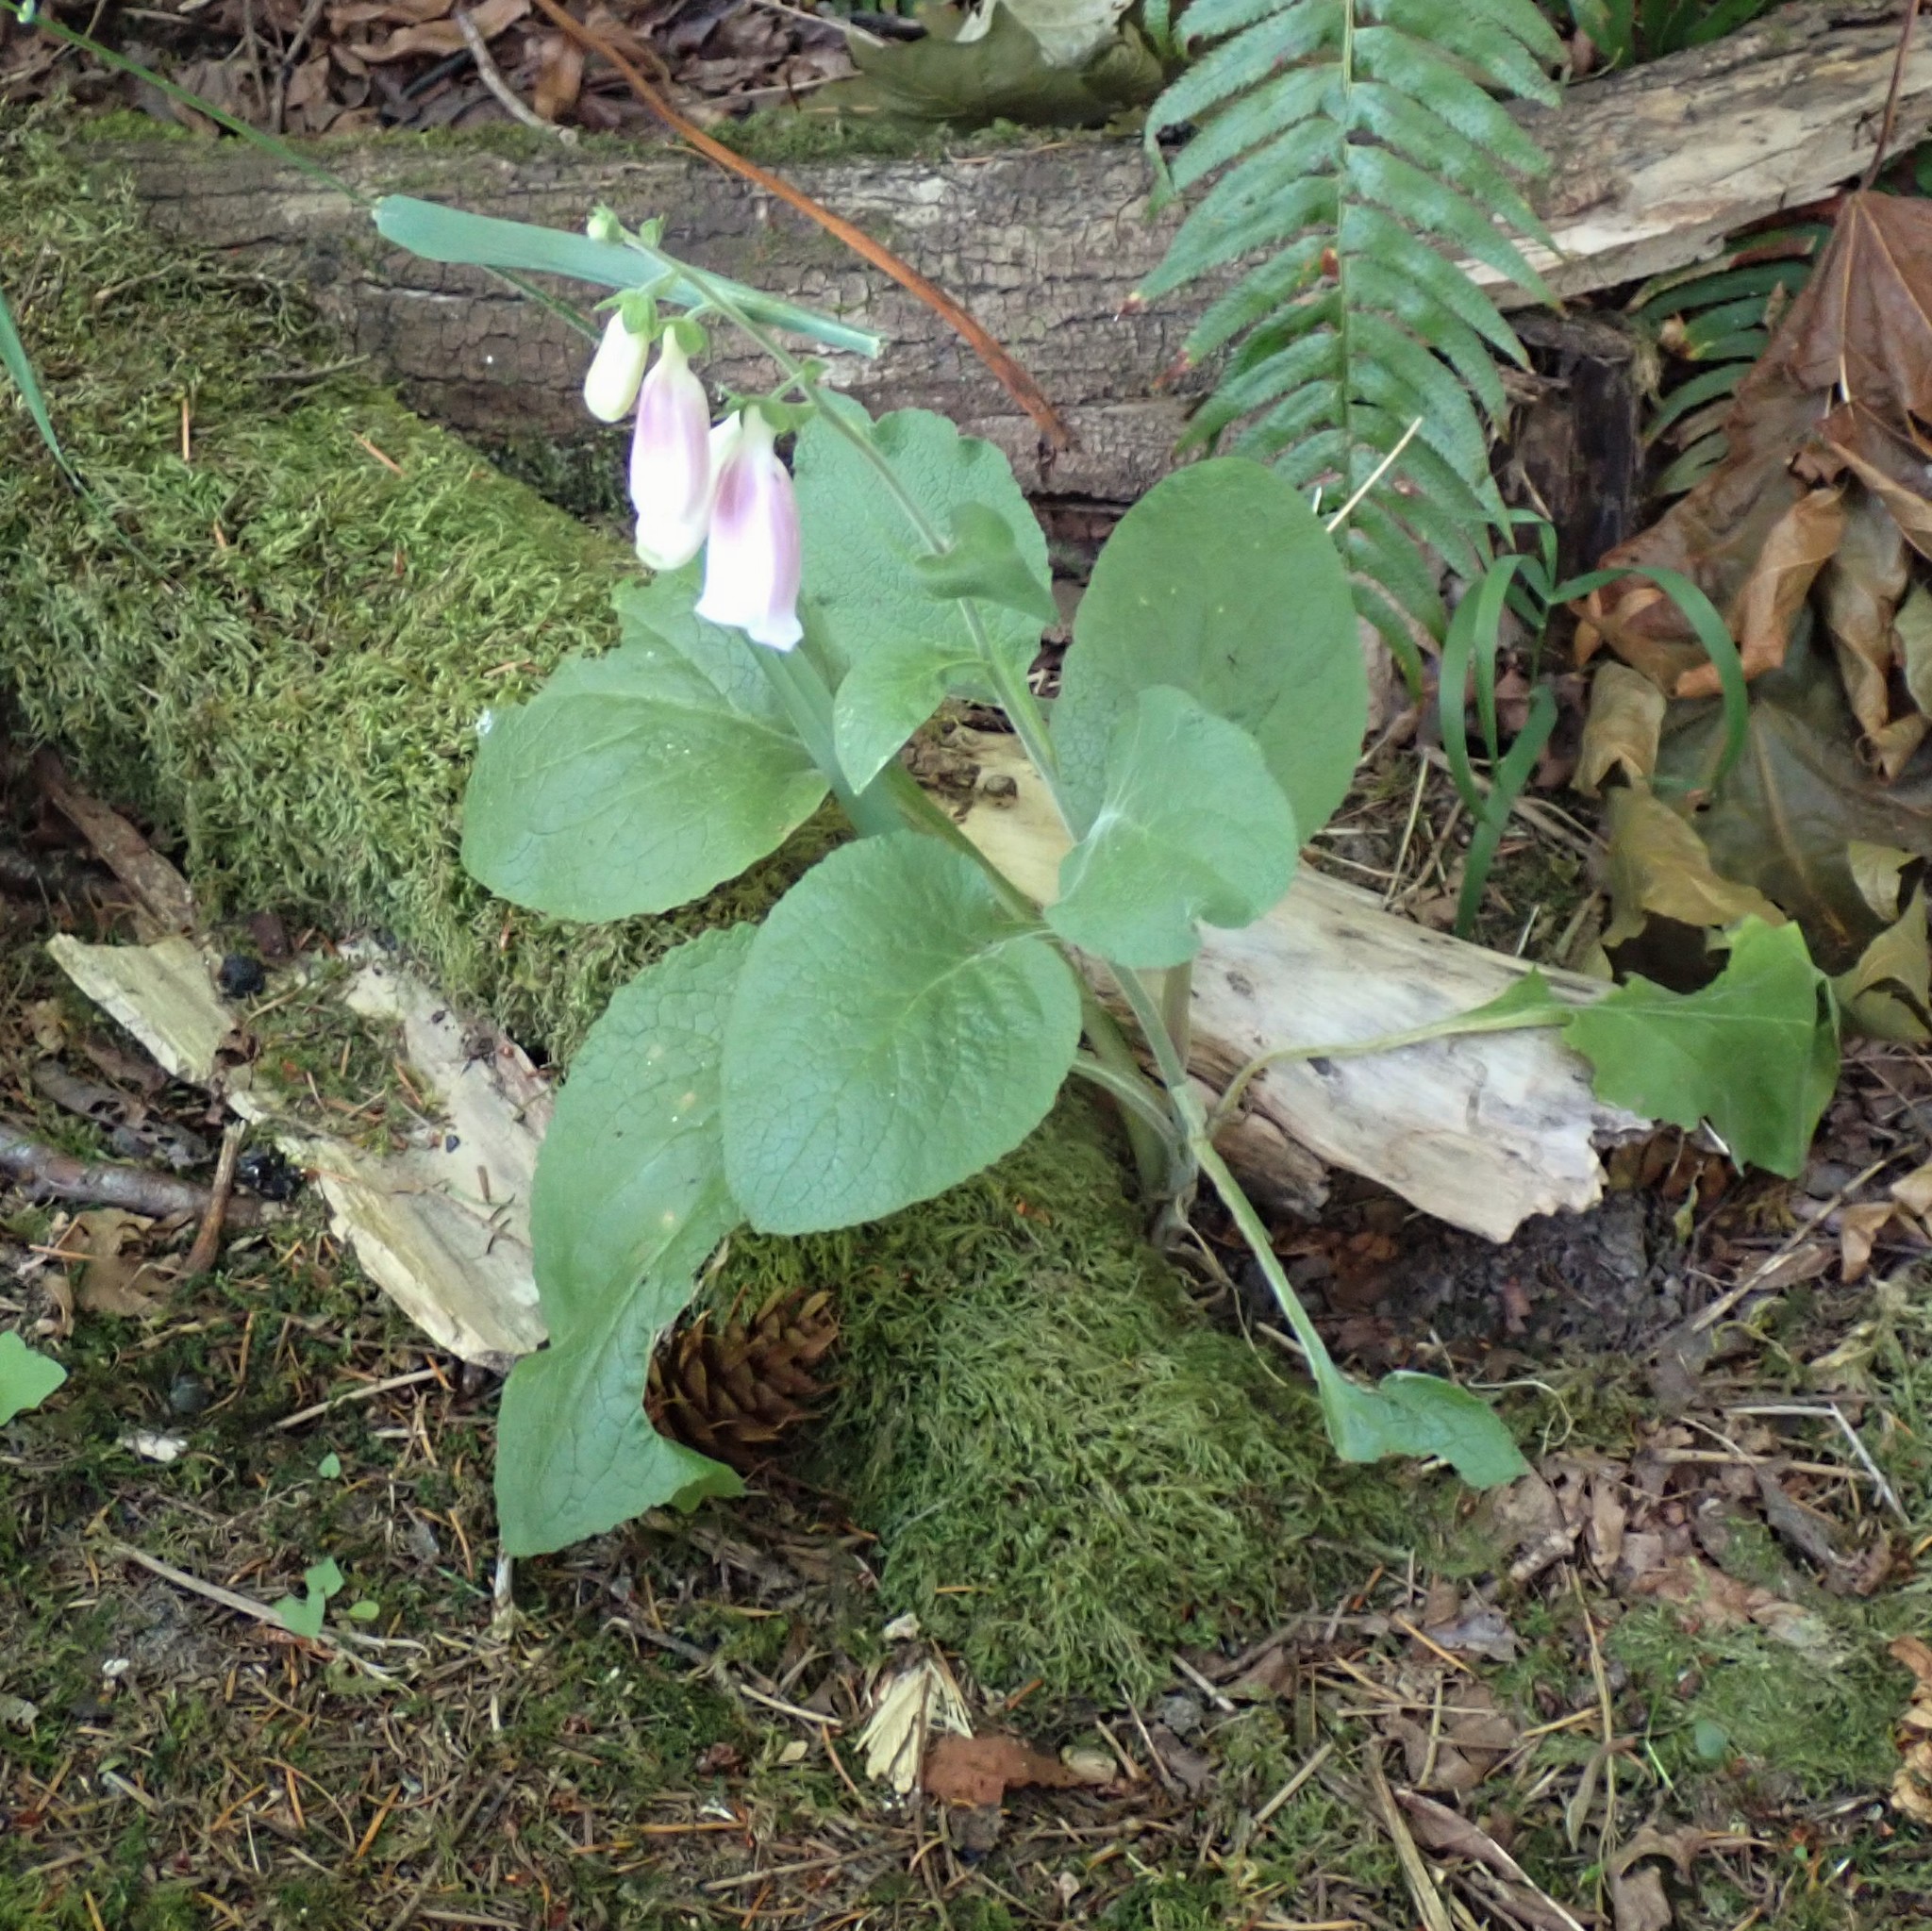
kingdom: Plantae
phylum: Tracheophyta
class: Magnoliopsida
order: Lamiales
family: Plantaginaceae
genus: Digitalis
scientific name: Digitalis purpurea
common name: Foxglove
